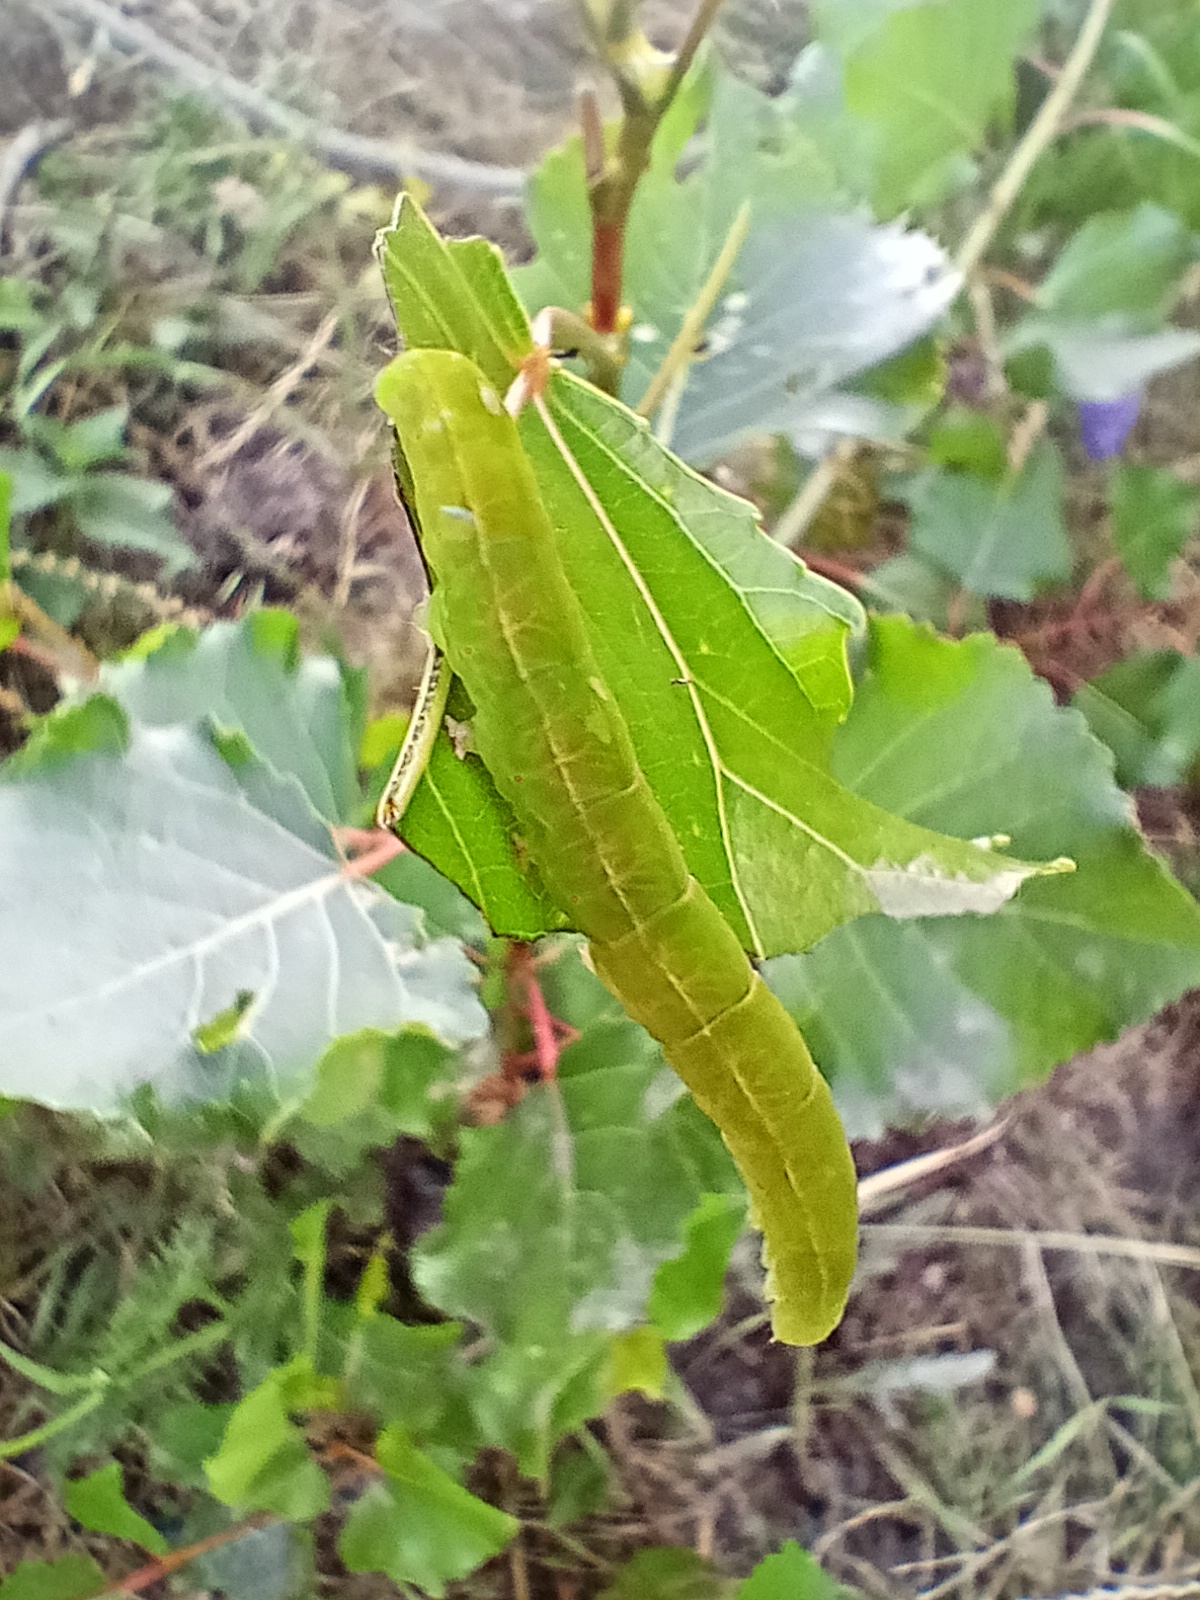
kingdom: Animalia
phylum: Arthropoda
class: Insecta
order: Lepidoptera
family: Erebidae
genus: Scoliopteryx
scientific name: Scoliopteryx libatrix
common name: Herald
